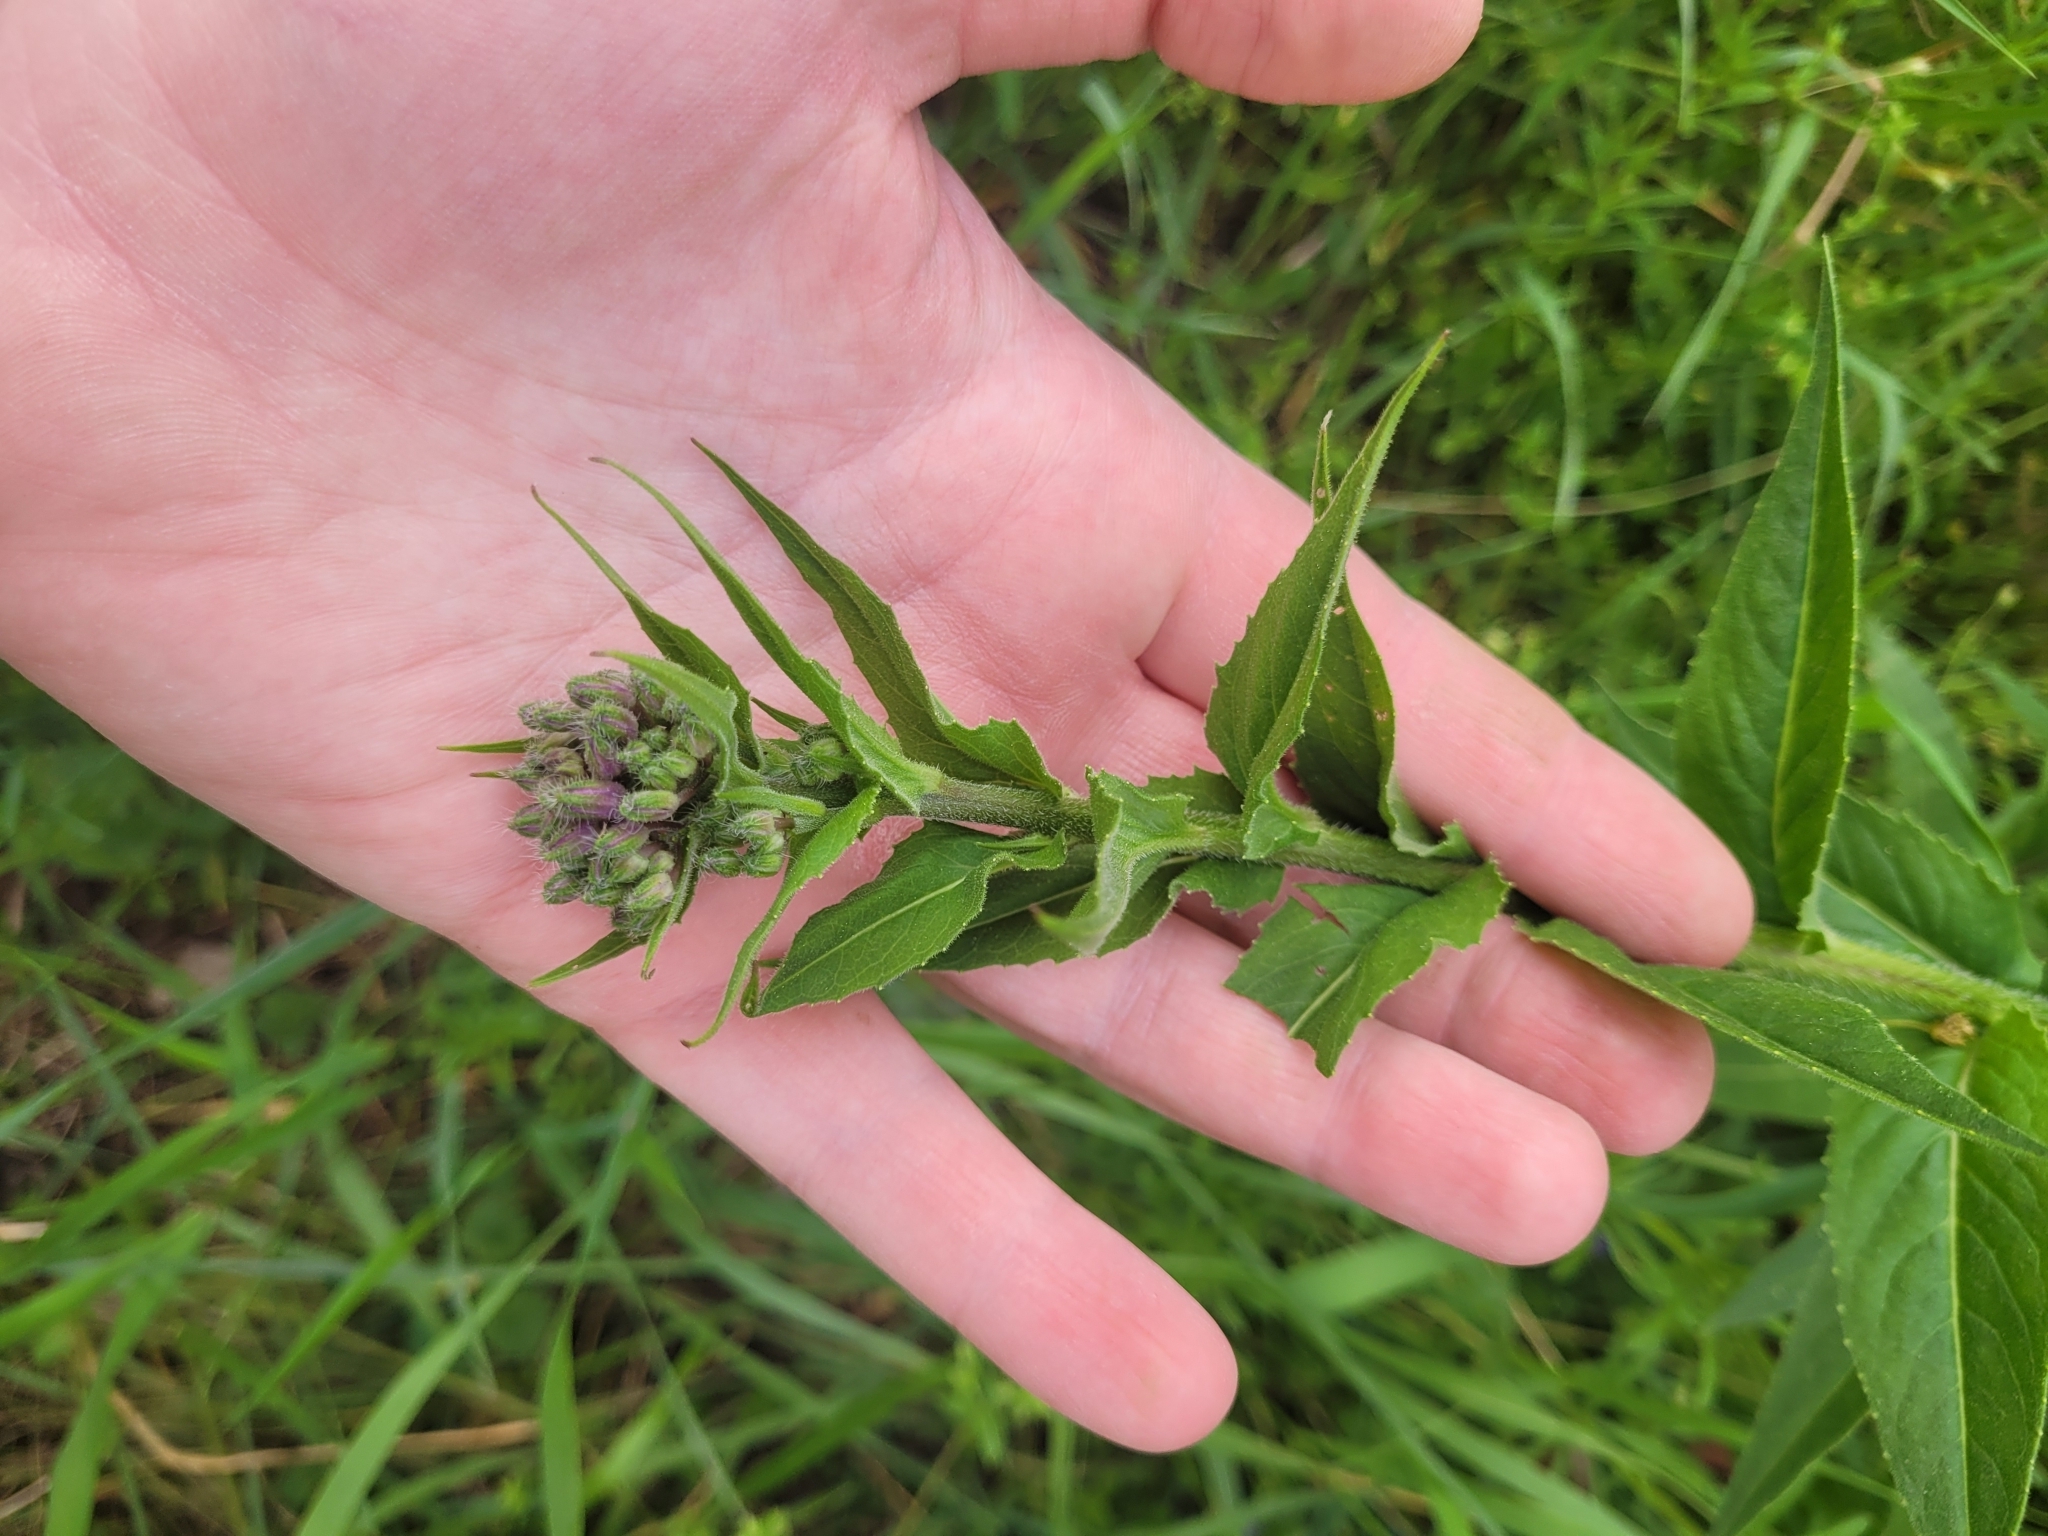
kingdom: Plantae
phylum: Tracheophyta
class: Magnoliopsida
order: Brassicales
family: Brassicaceae
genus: Hesperis
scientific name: Hesperis matronalis
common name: Dame's-violet
